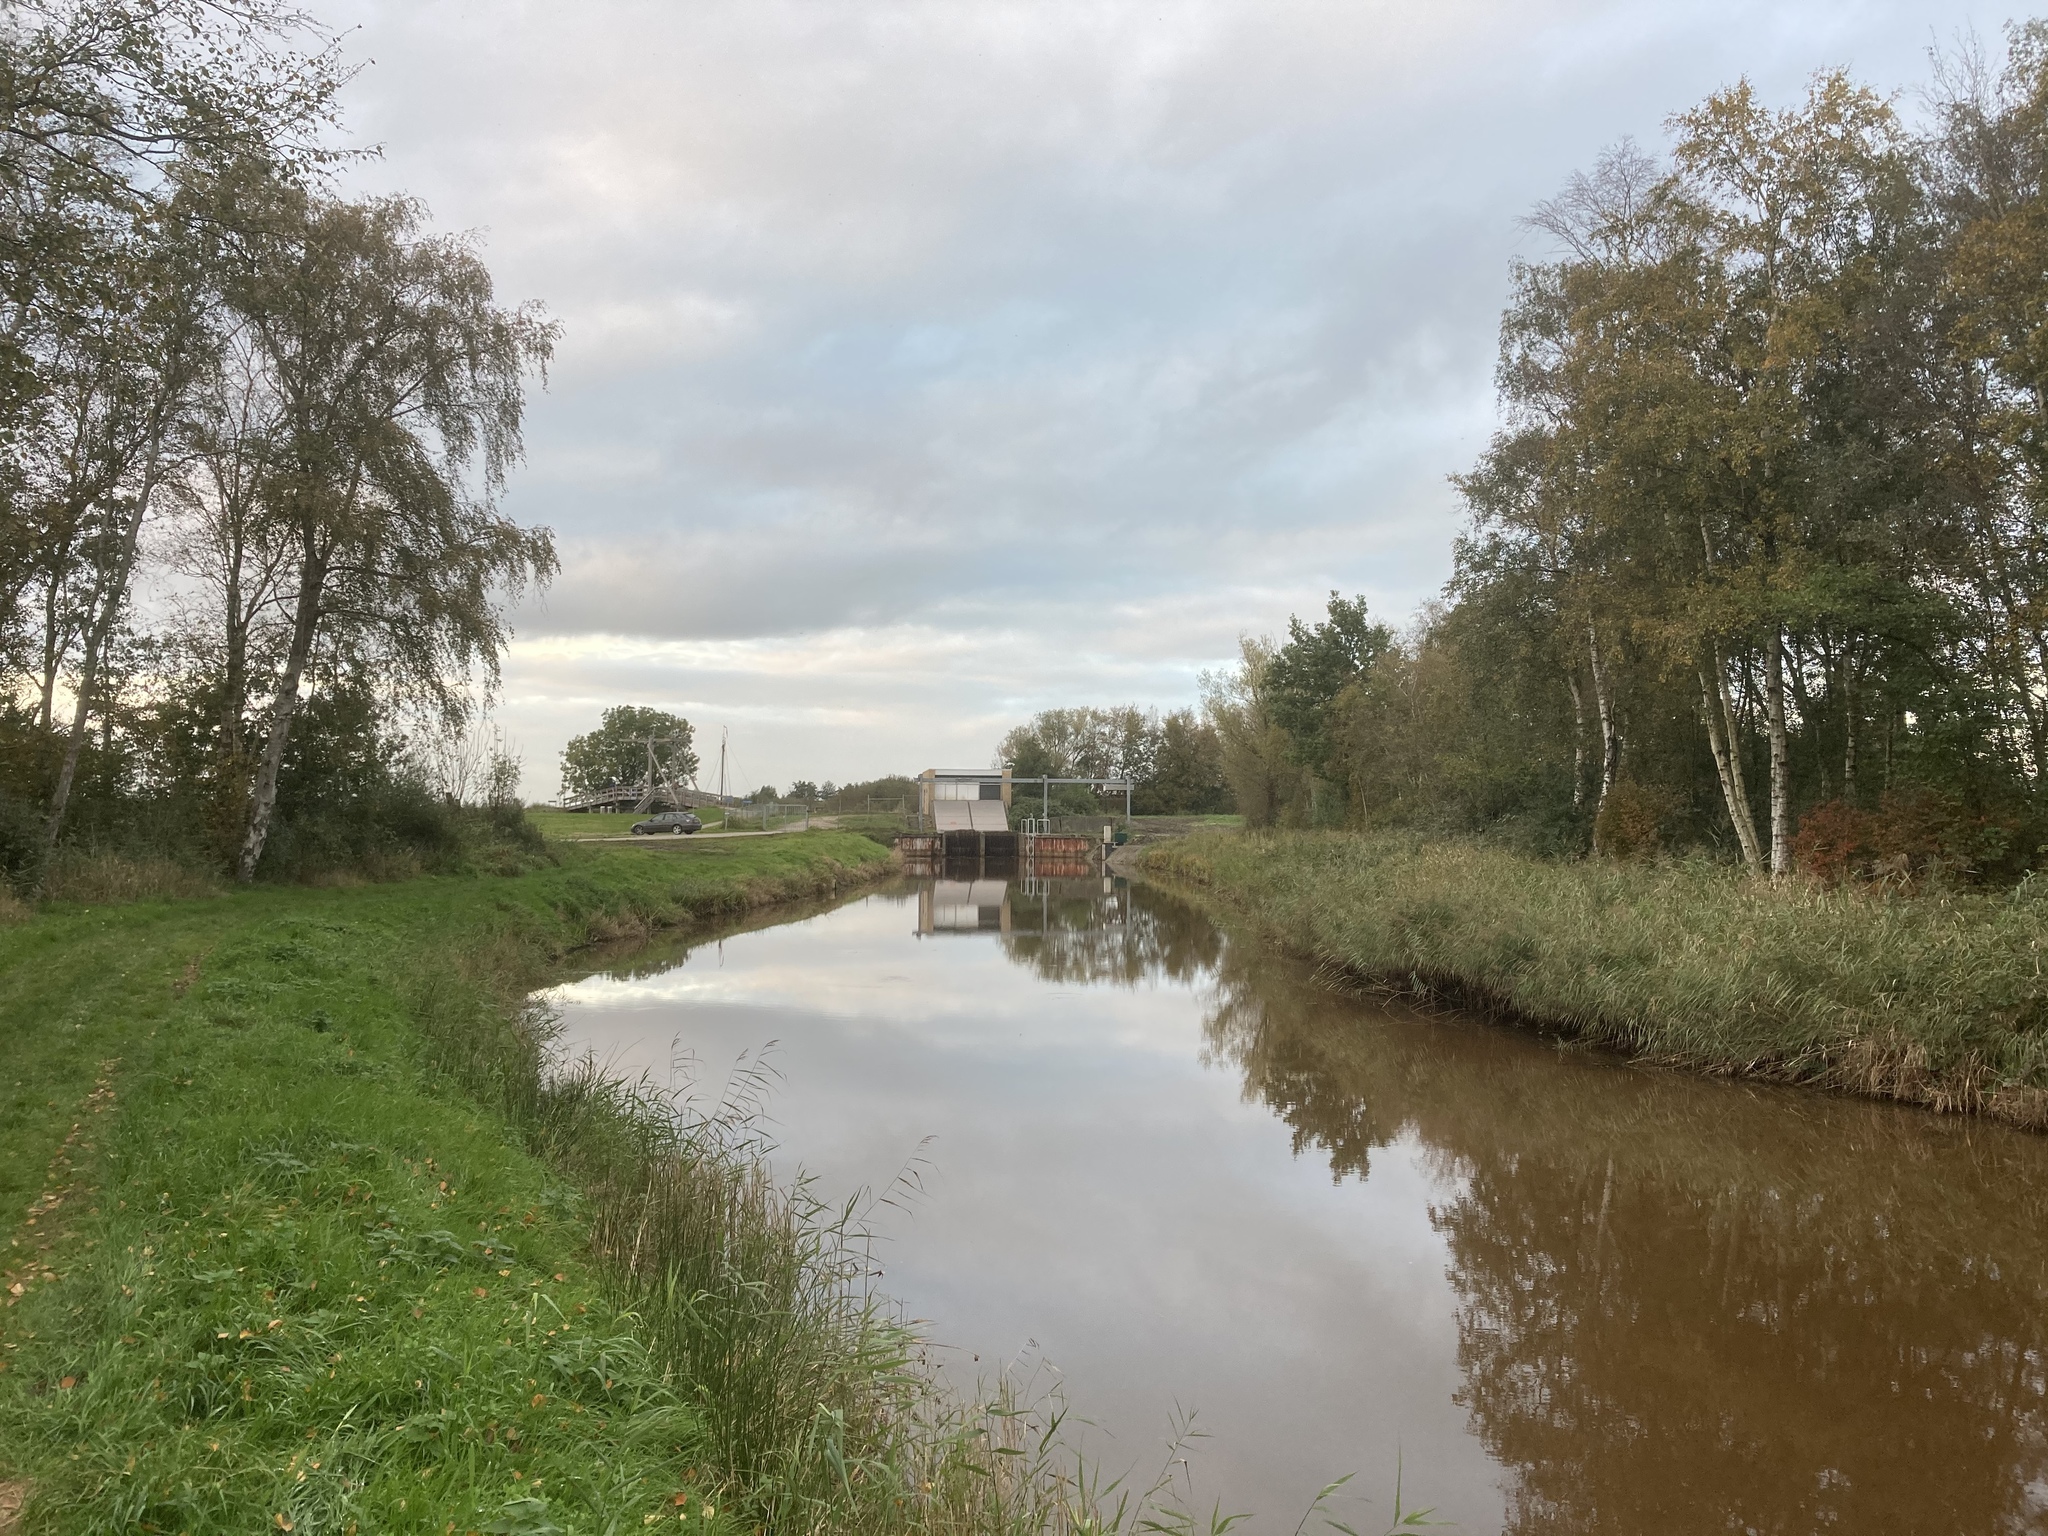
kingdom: Plantae
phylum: Tracheophyta
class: Liliopsida
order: Poales
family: Poaceae
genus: Phragmites
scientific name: Phragmites australis
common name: Common reed
